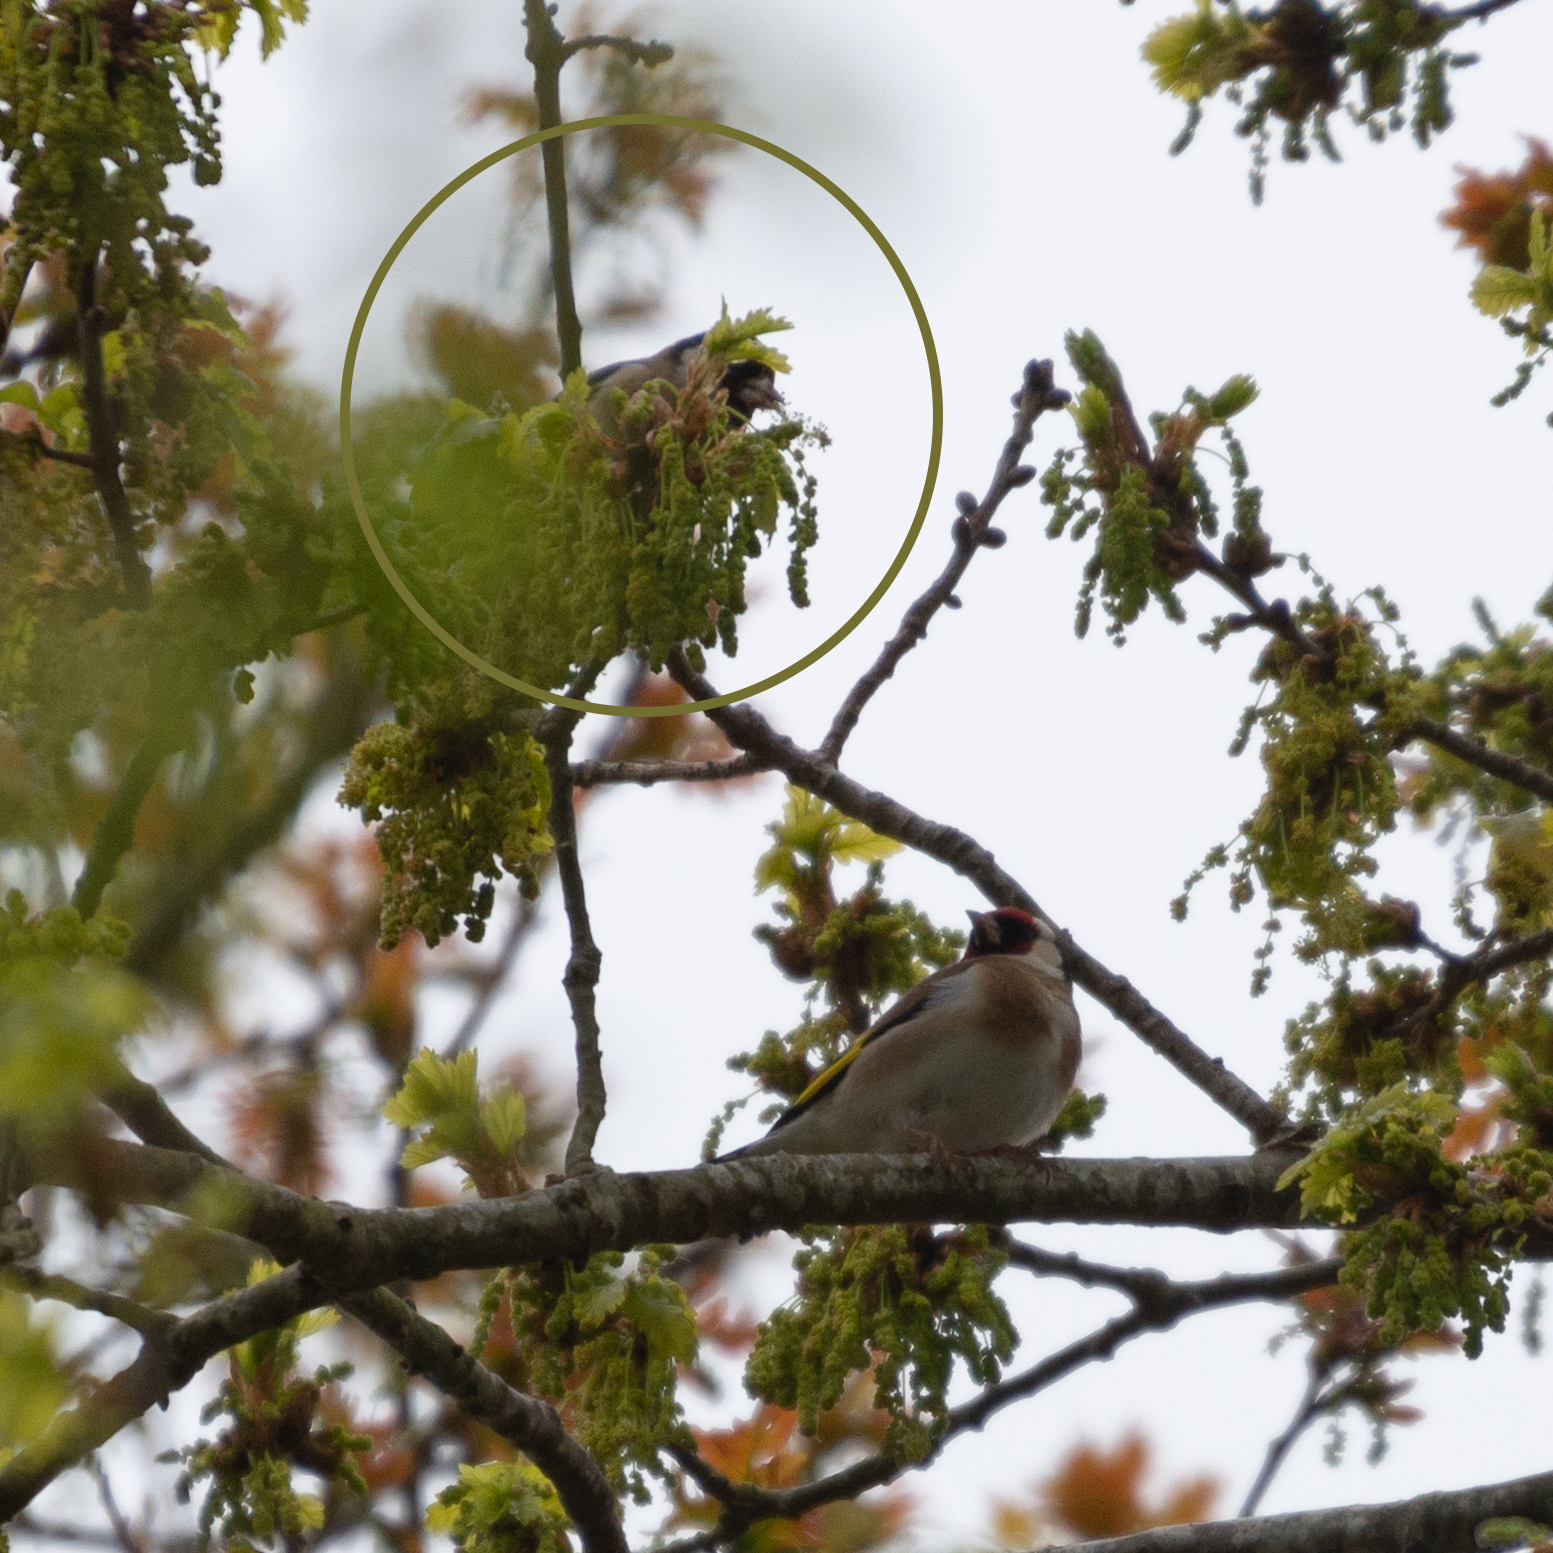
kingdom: Animalia
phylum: Chordata
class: Aves
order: Passeriformes
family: Fringillidae
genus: Carduelis
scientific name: Carduelis carduelis
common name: European goldfinch
